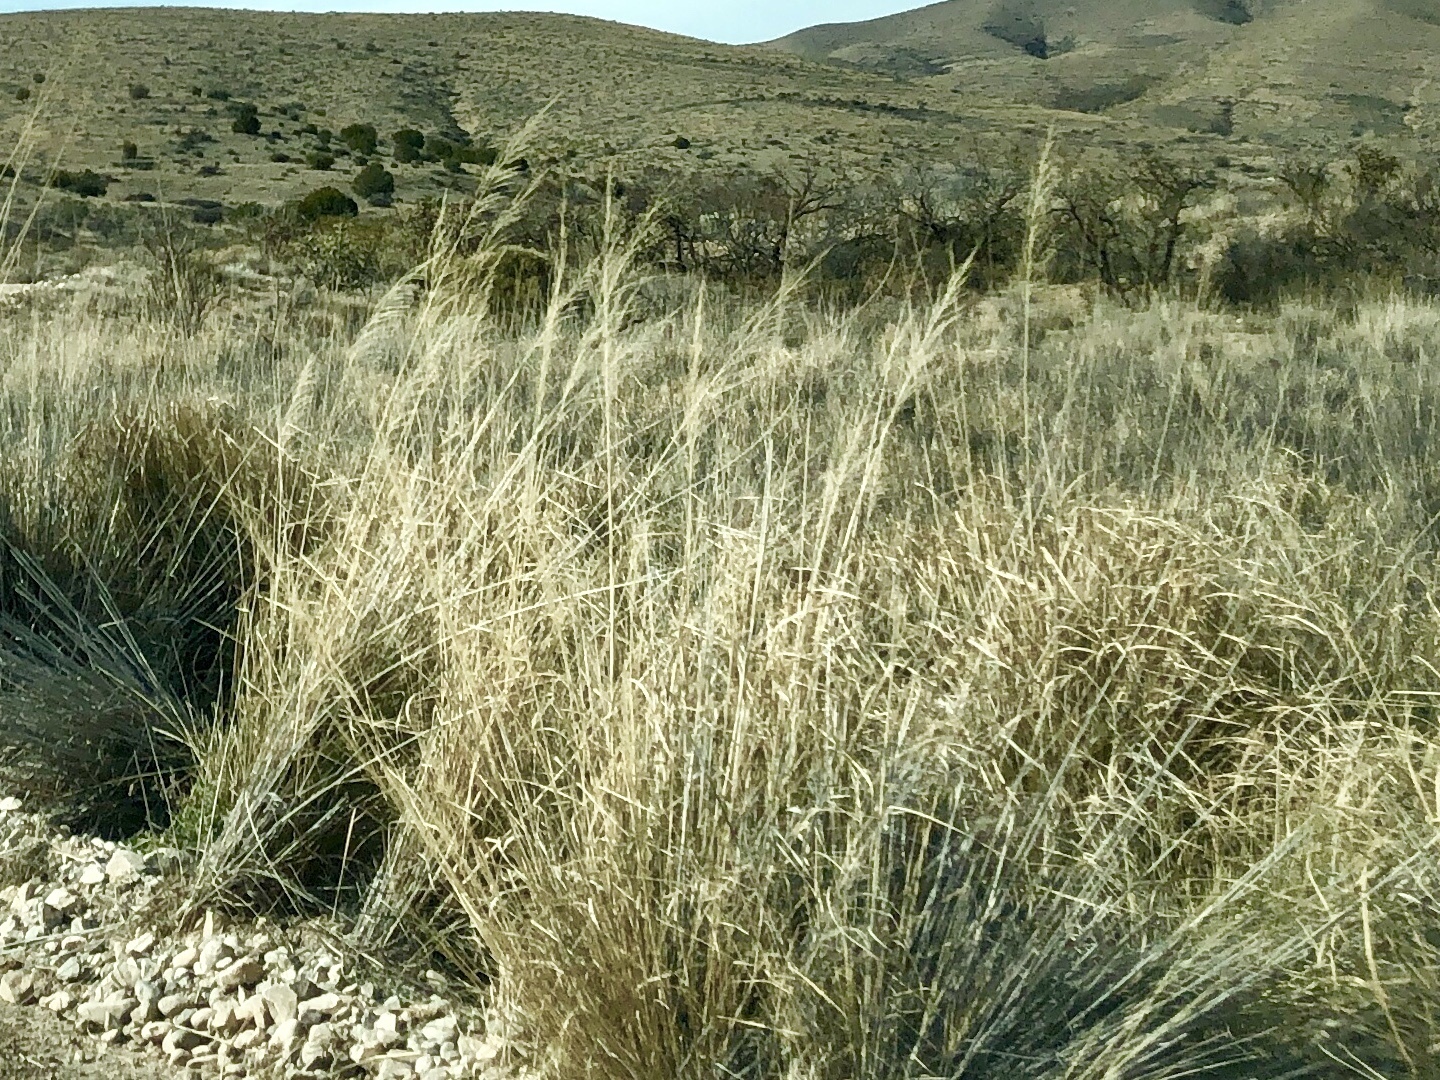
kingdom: Plantae
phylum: Tracheophyta
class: Liliopsida
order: Poales
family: Poaceae
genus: Sporobolus
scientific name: Sporobolus wrightii
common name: Big alkali sacaton
